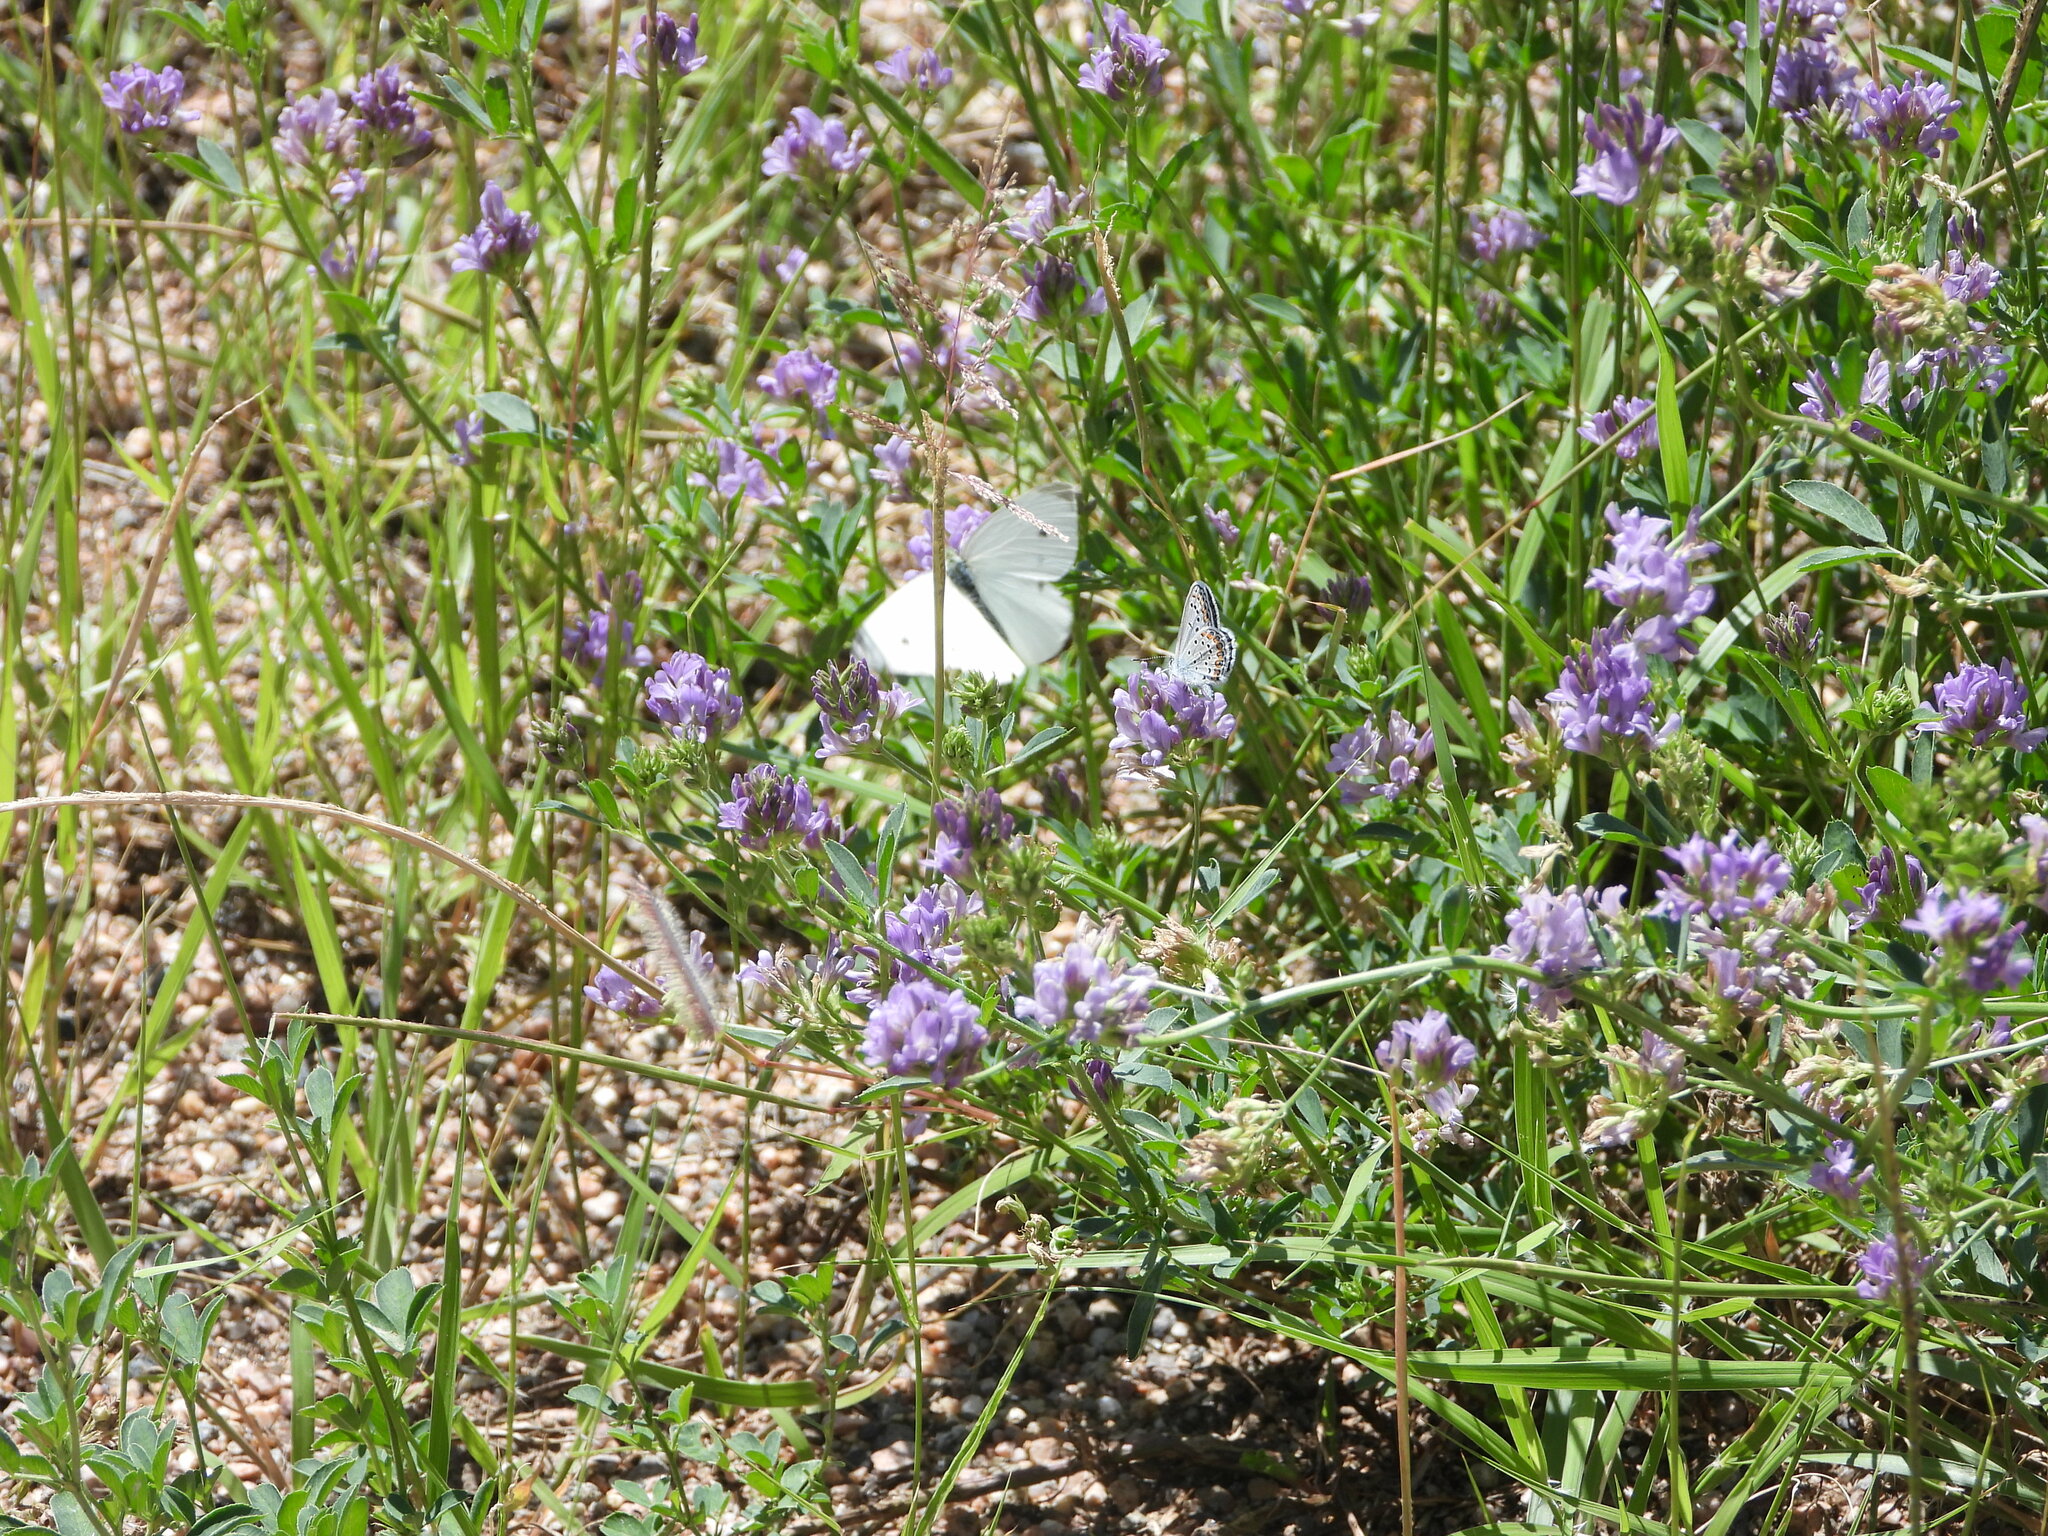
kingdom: Animalia
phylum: Arthropoda
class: Insecta
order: Lepidoptera
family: Pieridae
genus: Pieris
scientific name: Pieris rapae
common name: Small white
